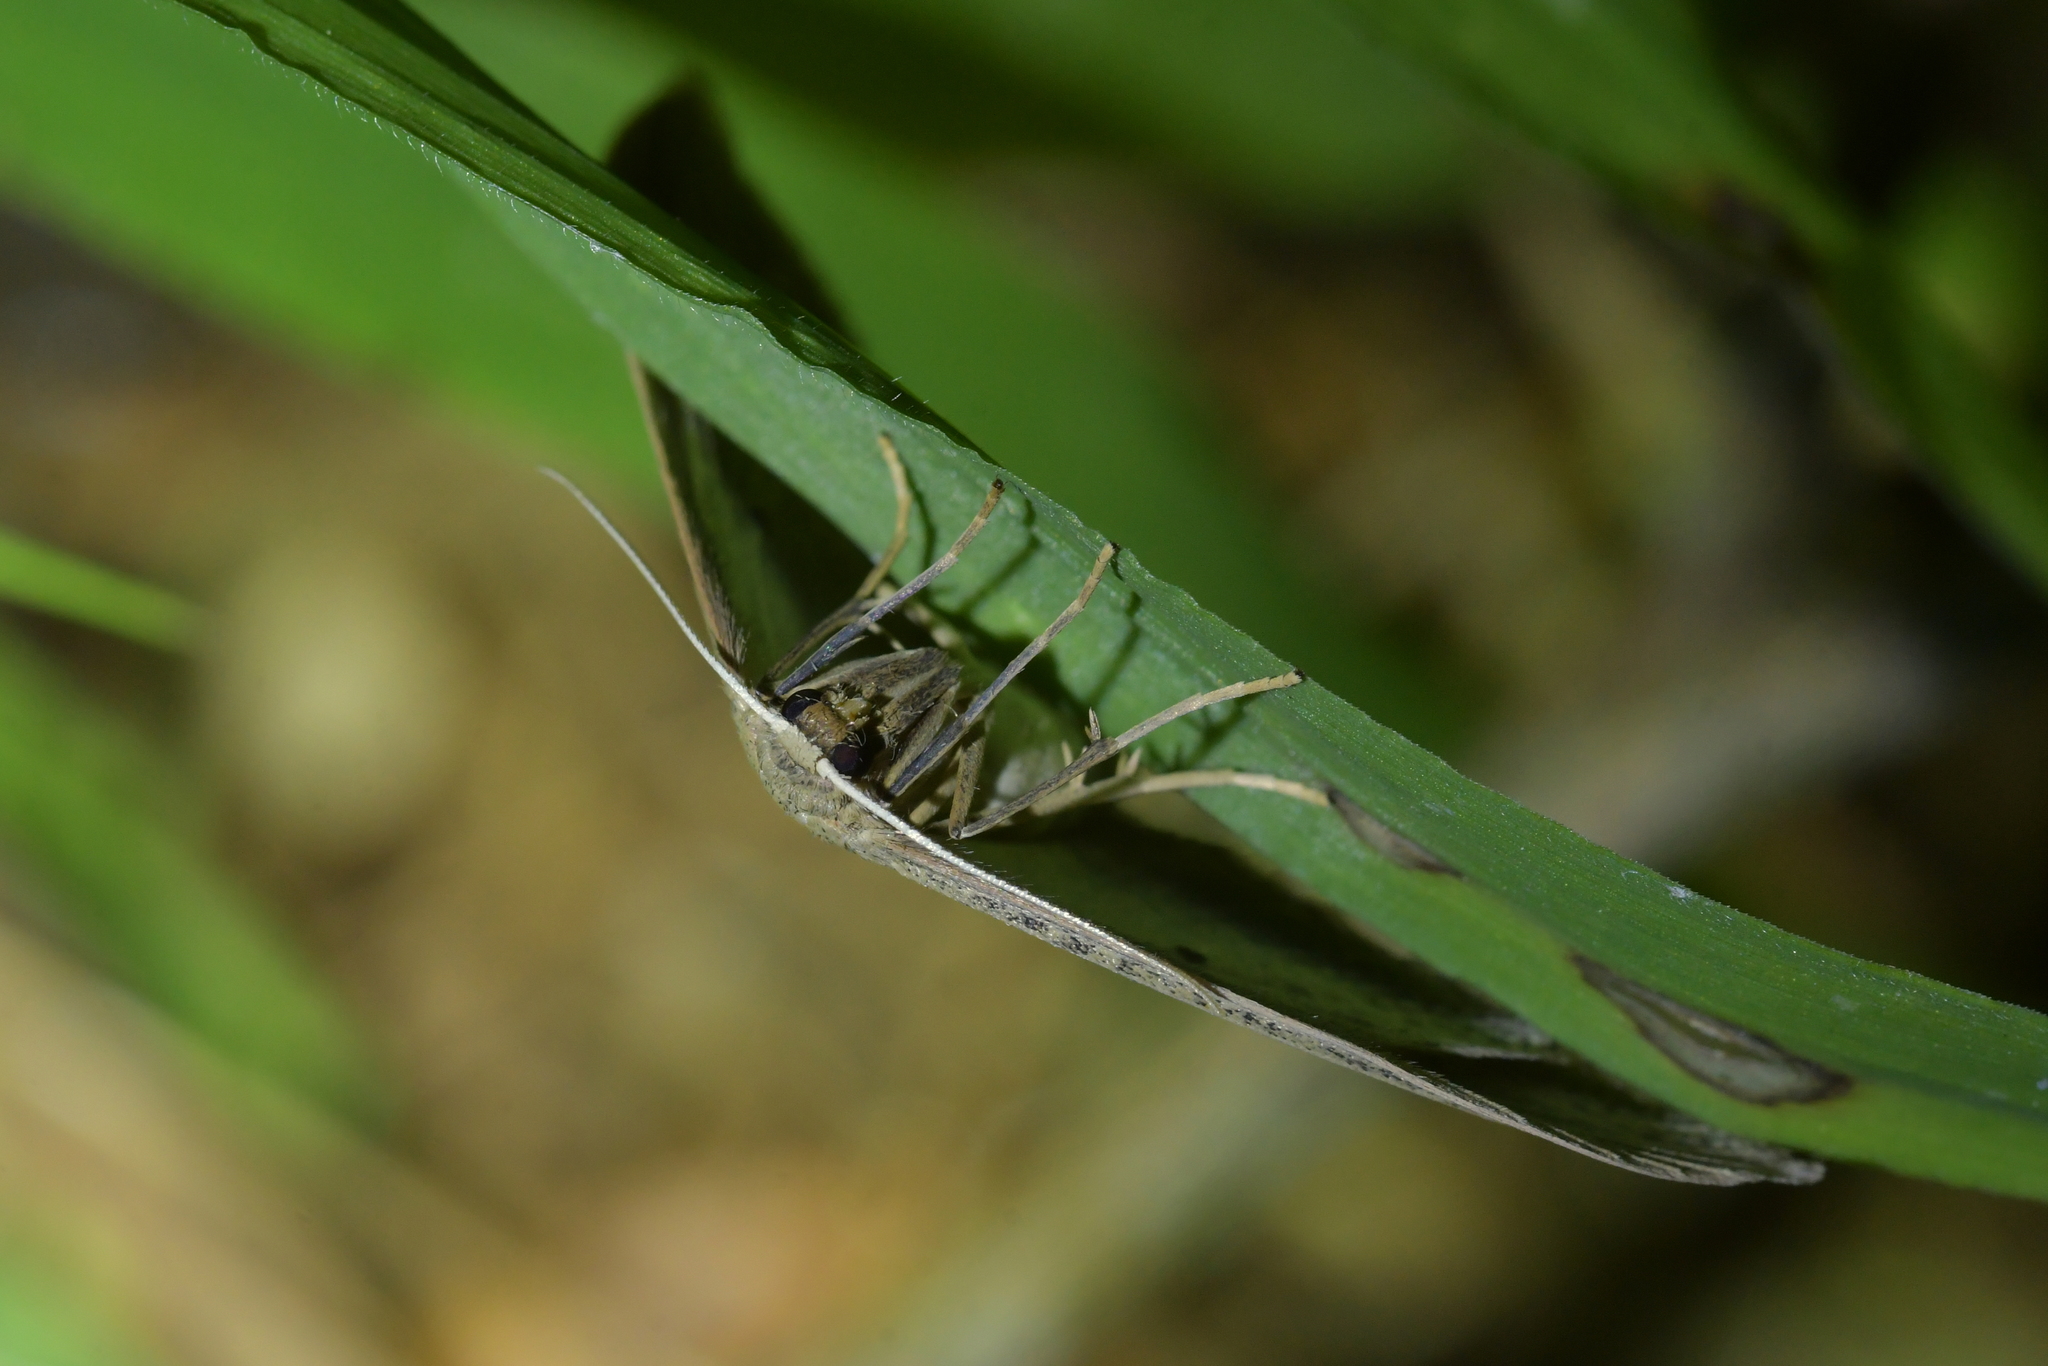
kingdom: Animalia
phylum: Arthropoda
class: Insecta
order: Lepidoptera
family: Geometridae
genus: Epiphryne
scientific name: Epiphryne verriculata
